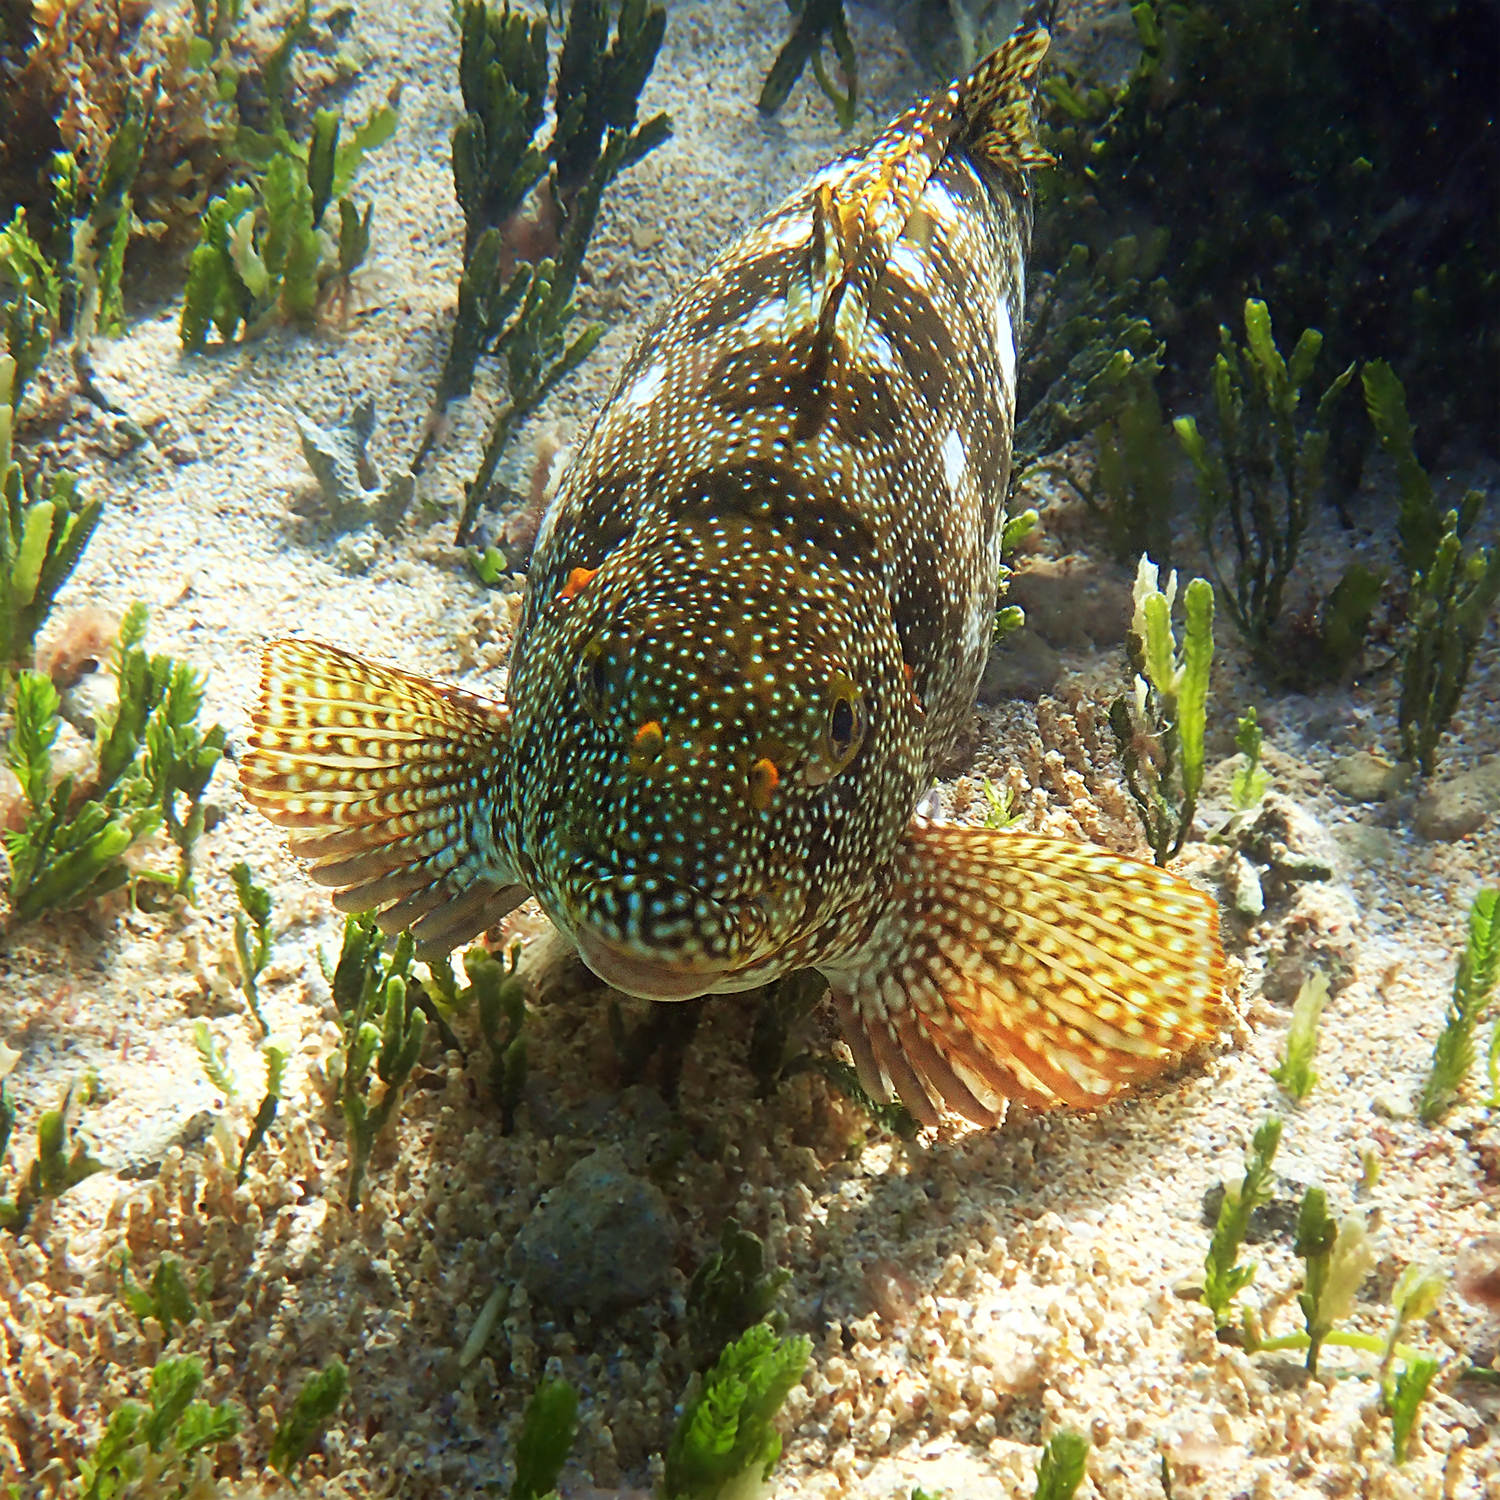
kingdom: Animalia
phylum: Chordata
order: Perciformes
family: Aplodactylidae
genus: Aplodactylus
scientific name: Aplodactylus etheridgii
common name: Notchheaded marblefish
